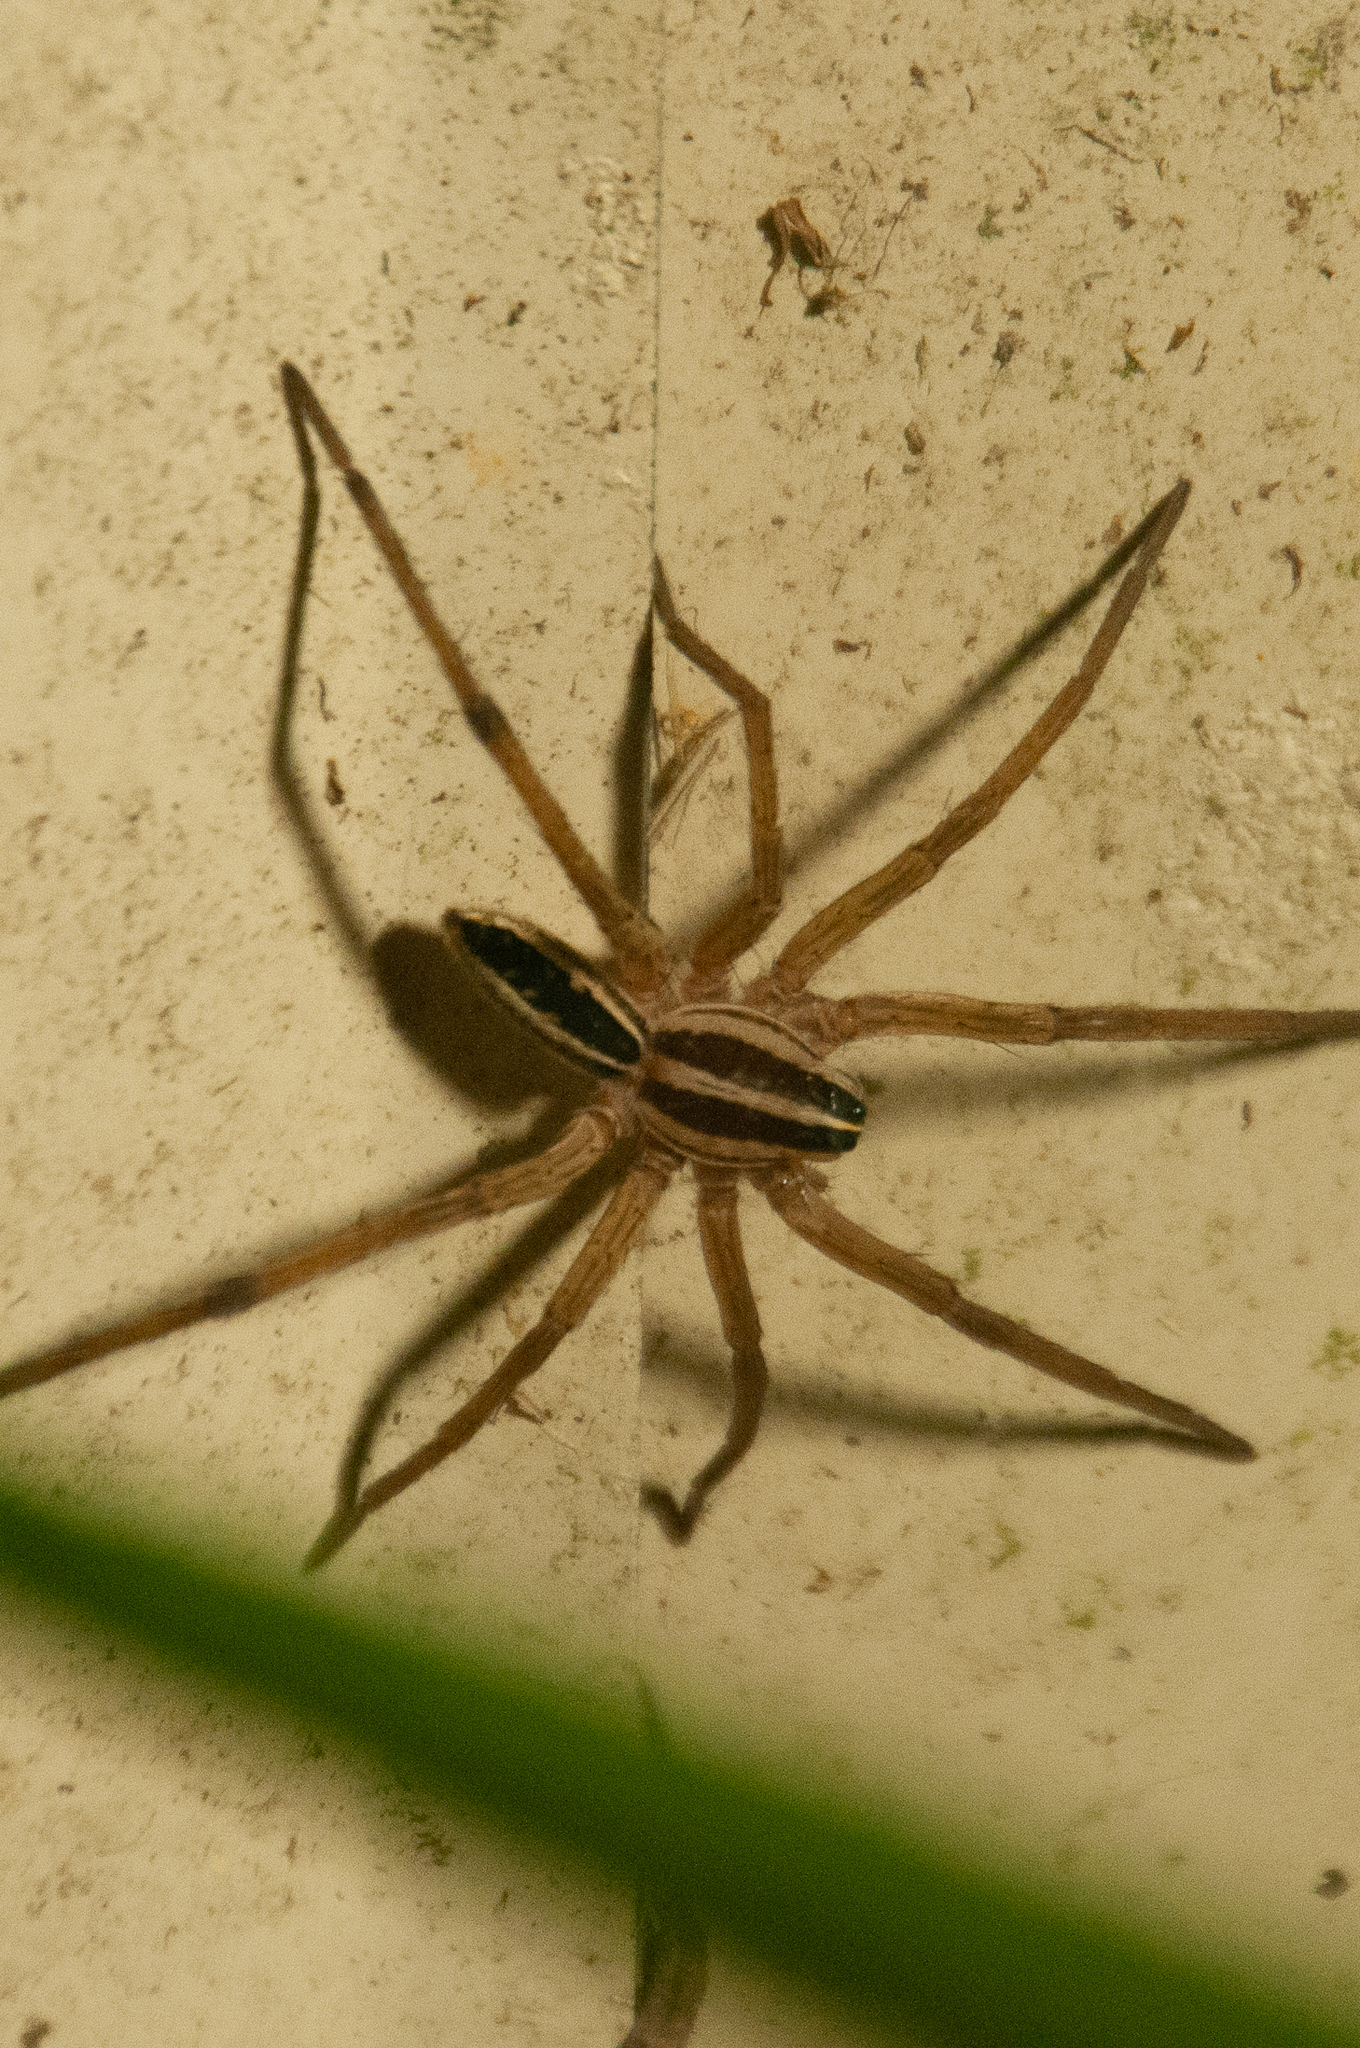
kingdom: Animalia
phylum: Arthropoda
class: Arachnida
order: Araneae
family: Lycosidae
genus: Rabidosa
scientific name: Rabidosa rabida
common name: Rabid wolf spider
